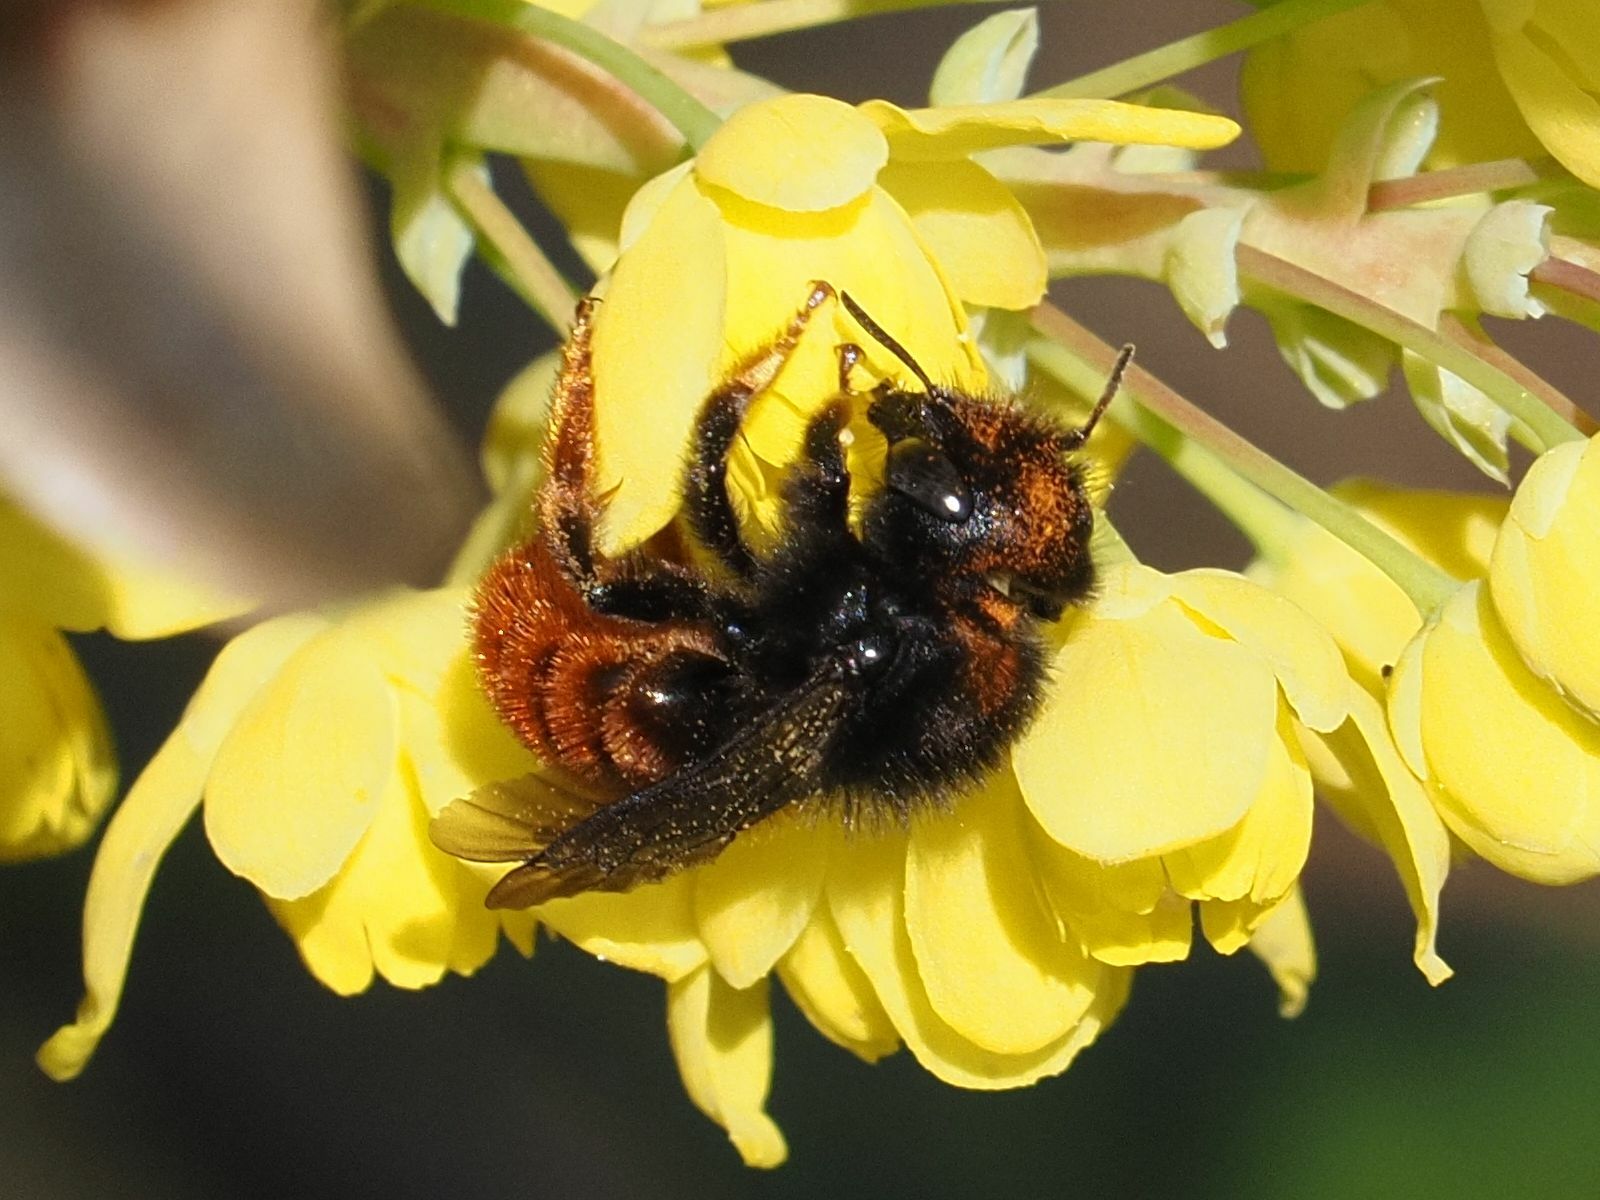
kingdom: Animalia
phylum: Arthropoda
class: Insecta
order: Hymenoptera
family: Megachilidae
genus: Osmia
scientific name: Osmia bicolor
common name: Red-tailed mason bee
